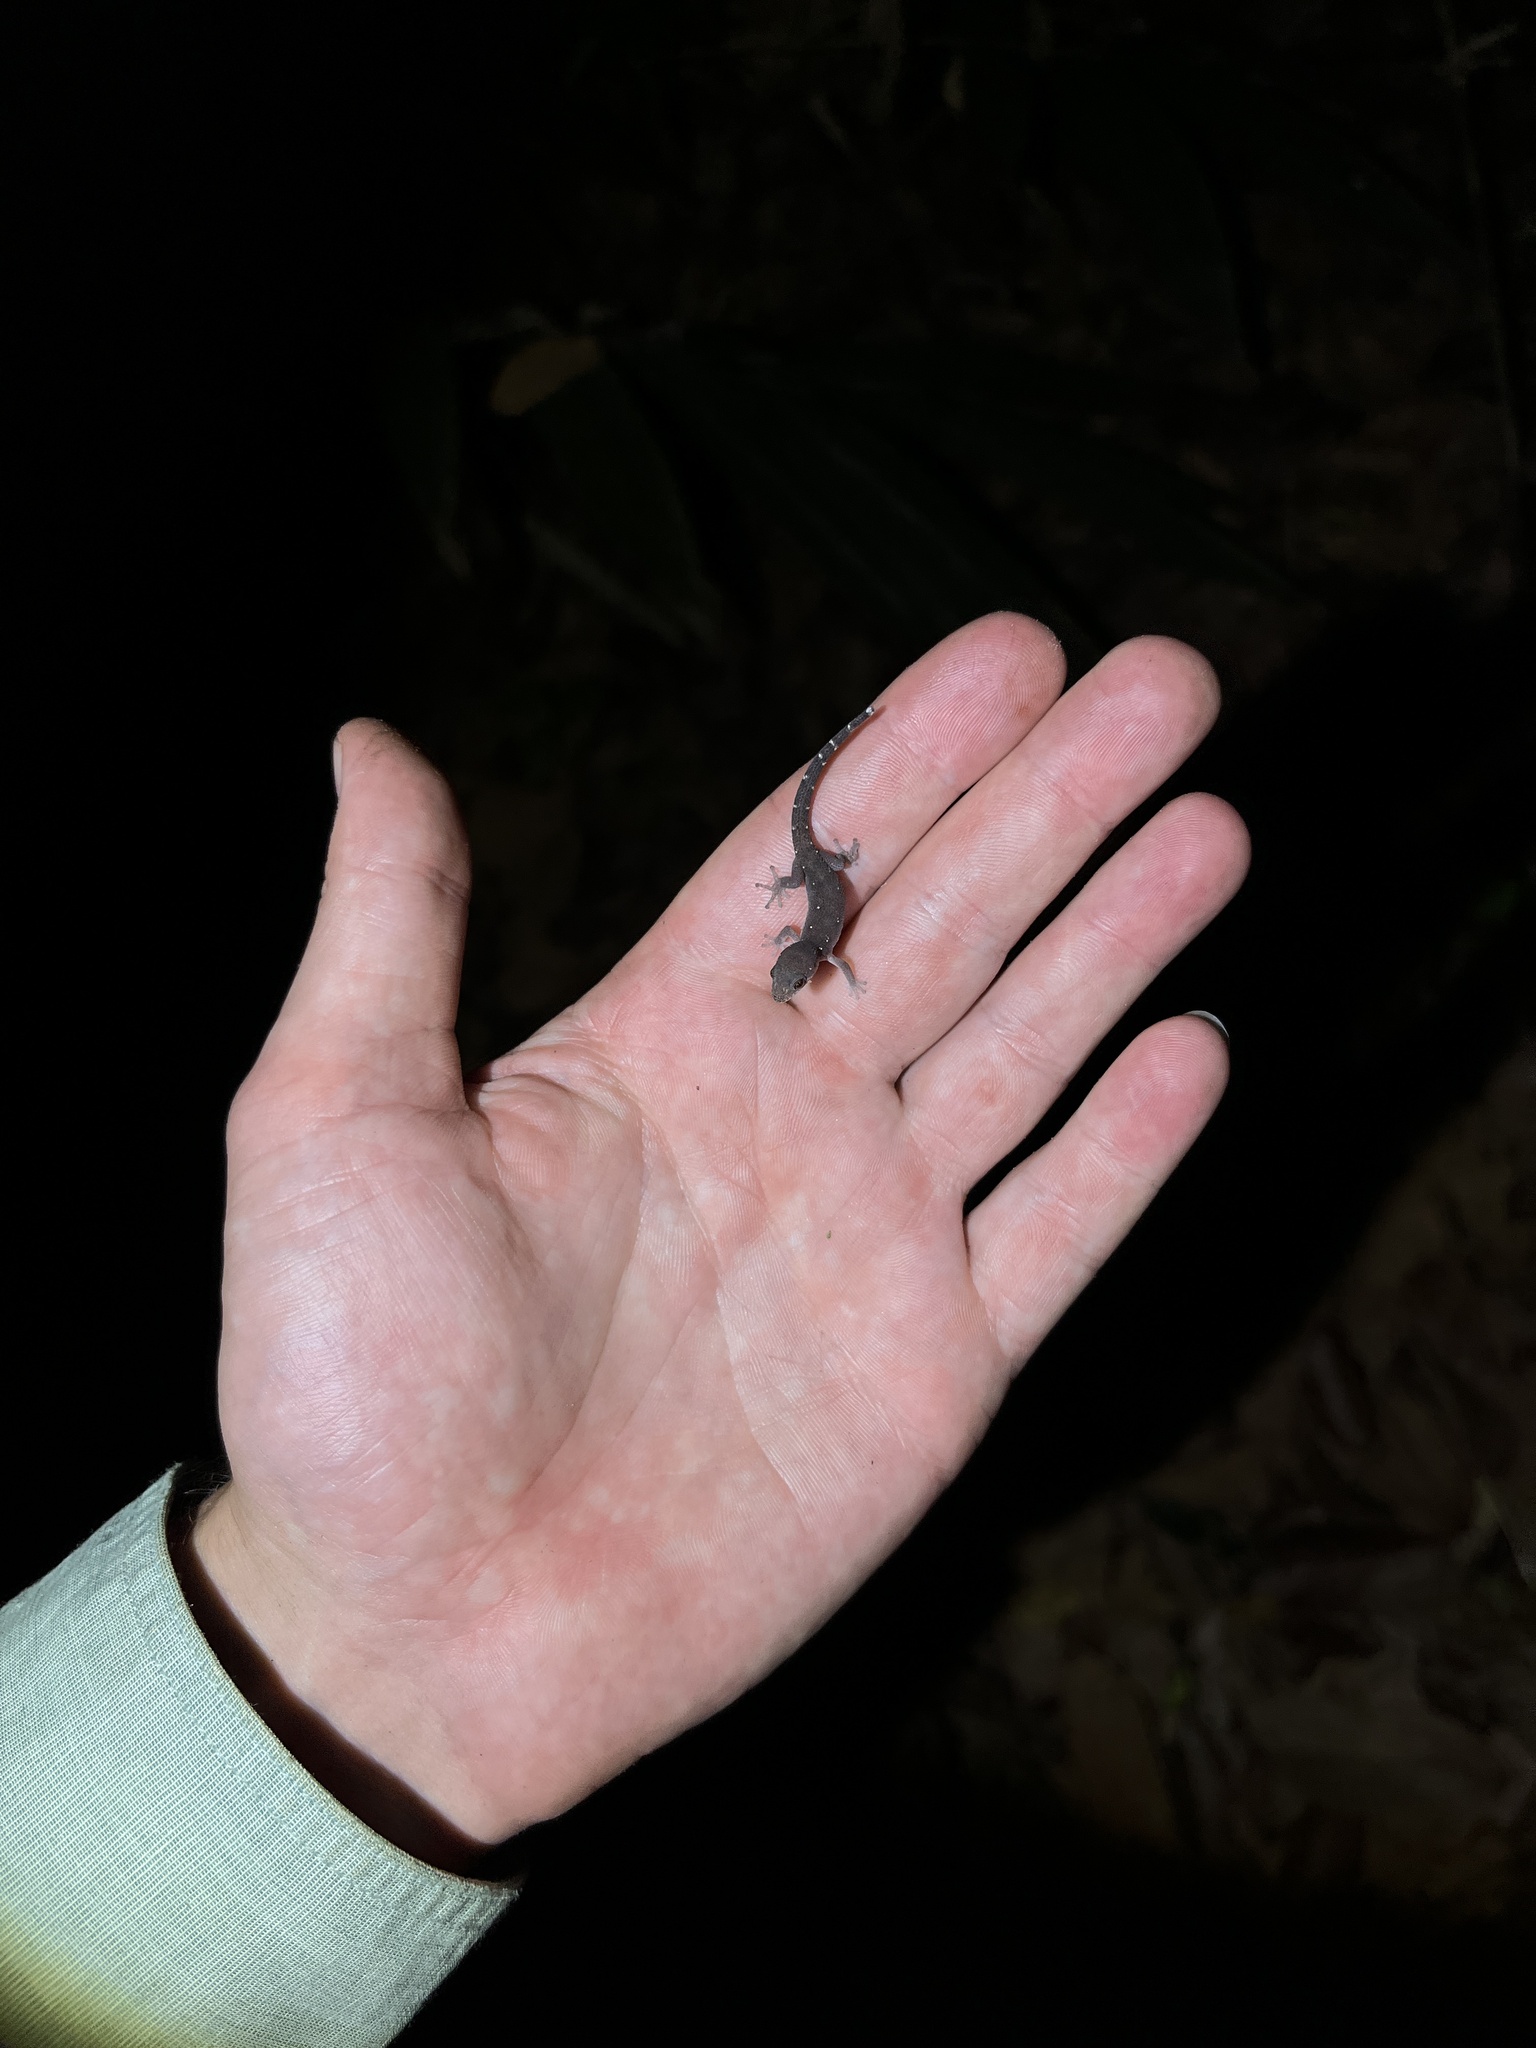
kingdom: Animalia
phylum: Chordata
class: Squamata
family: Gekkonidae
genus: Dixonius
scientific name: Dixonius siamensis
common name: Siamese leaf-toed gecko
